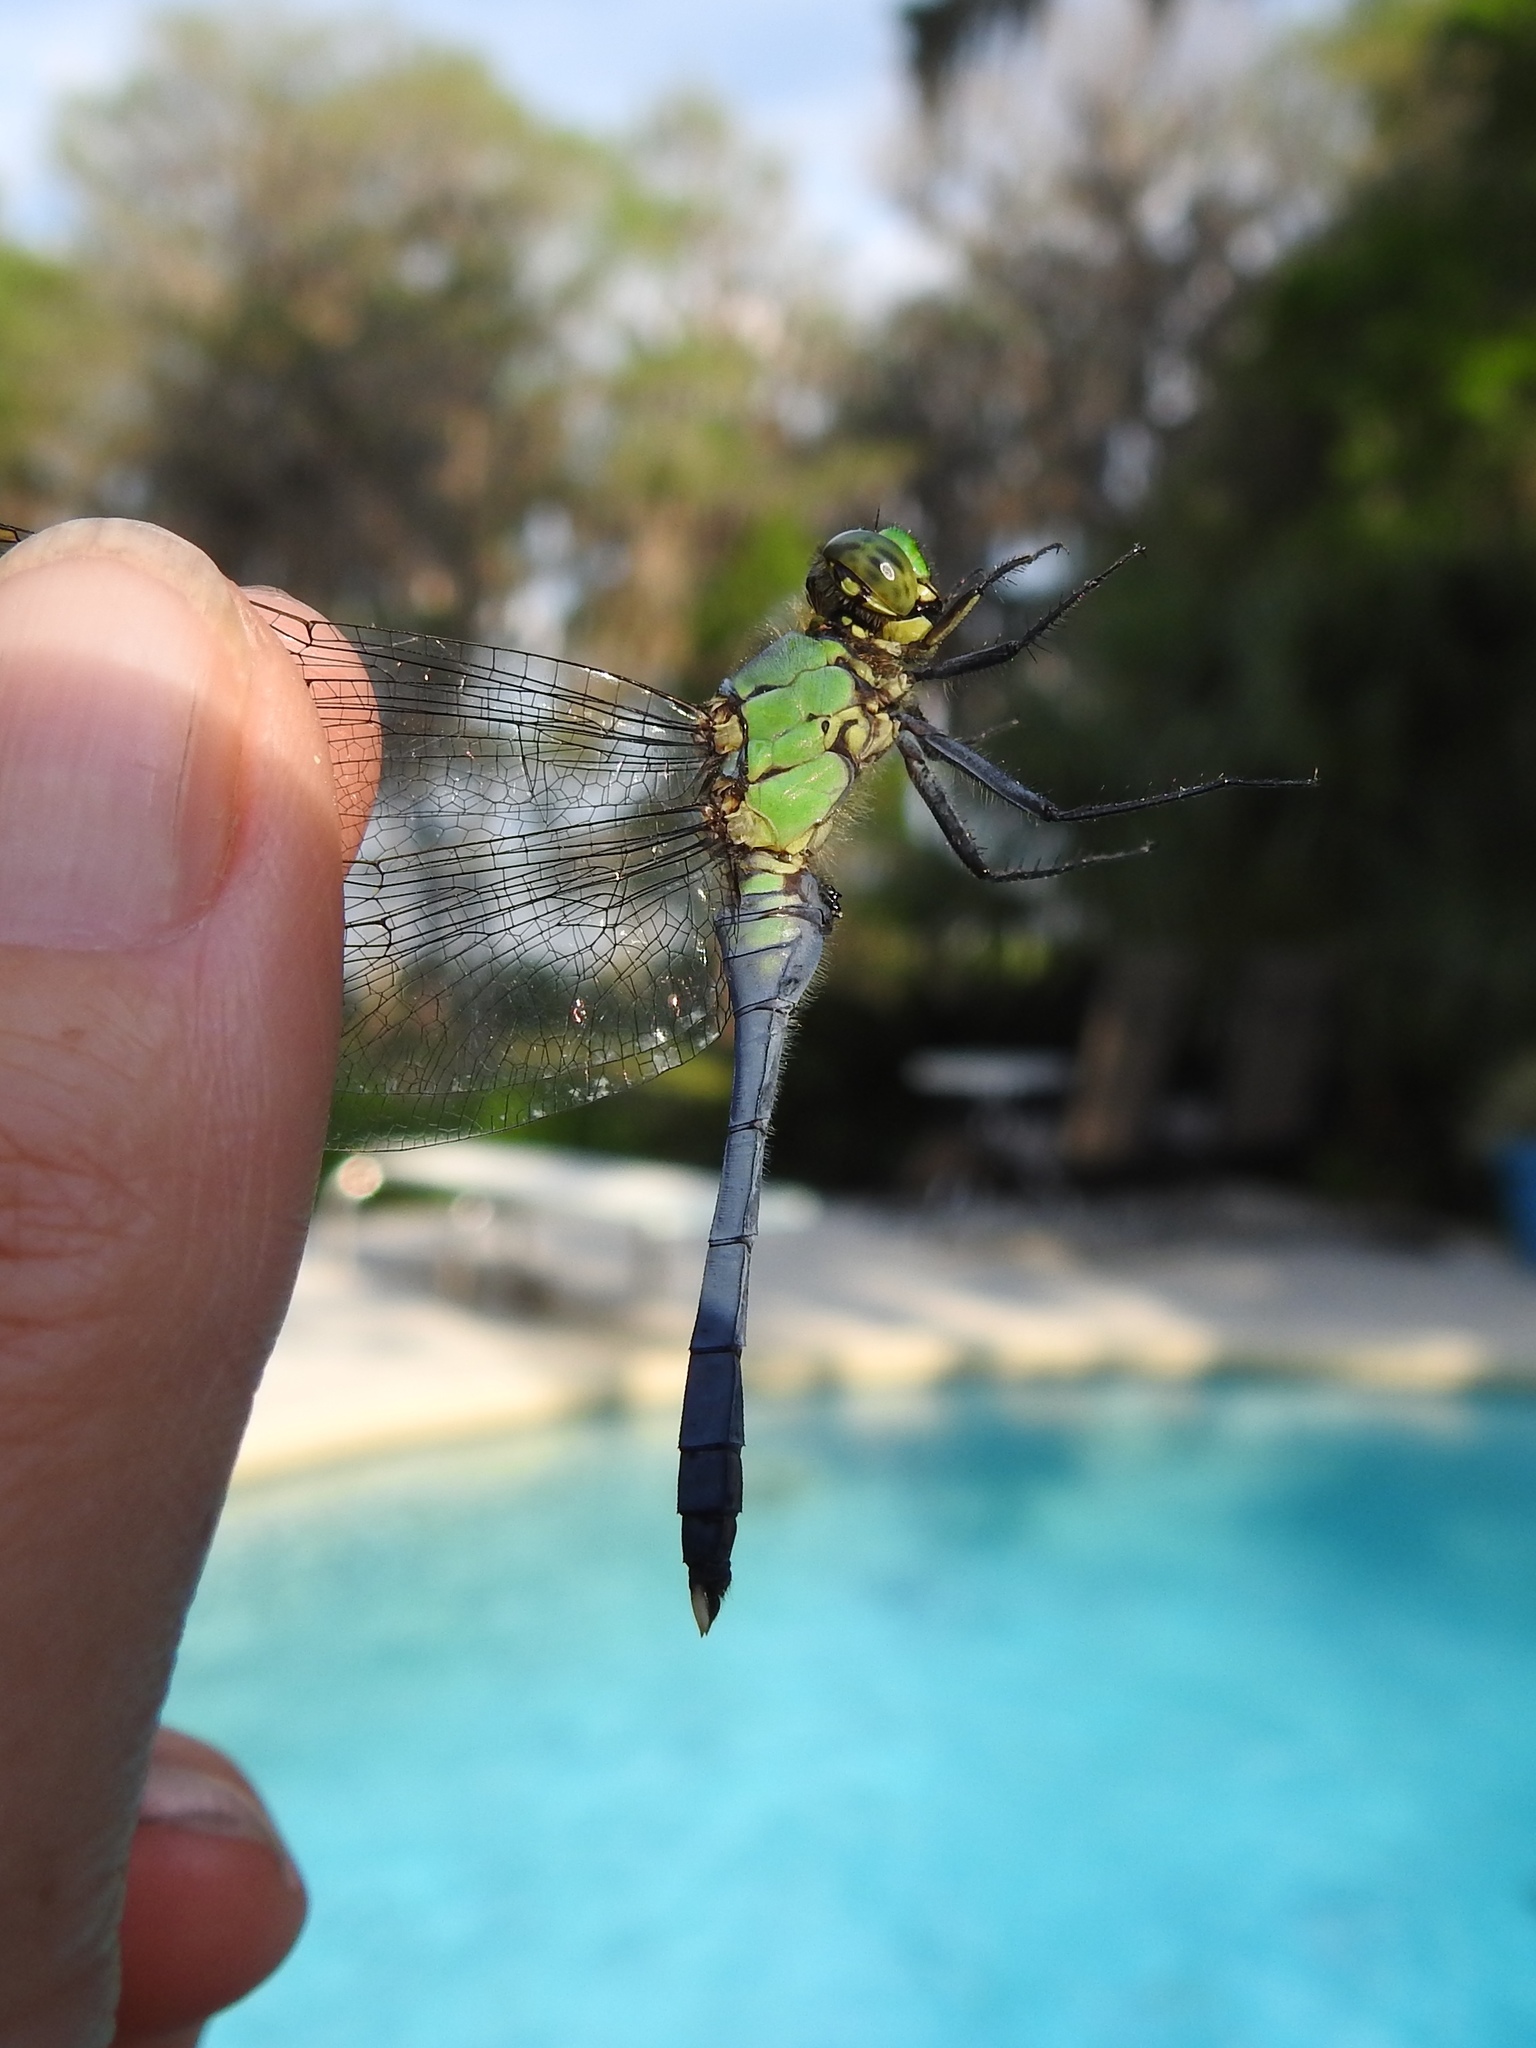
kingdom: Animalia
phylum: Arthropoda
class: Insecta
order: Odonata
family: Libellulidae
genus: Erythemis
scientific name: Erythemis simplicicollis
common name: Eastern pondhawk
